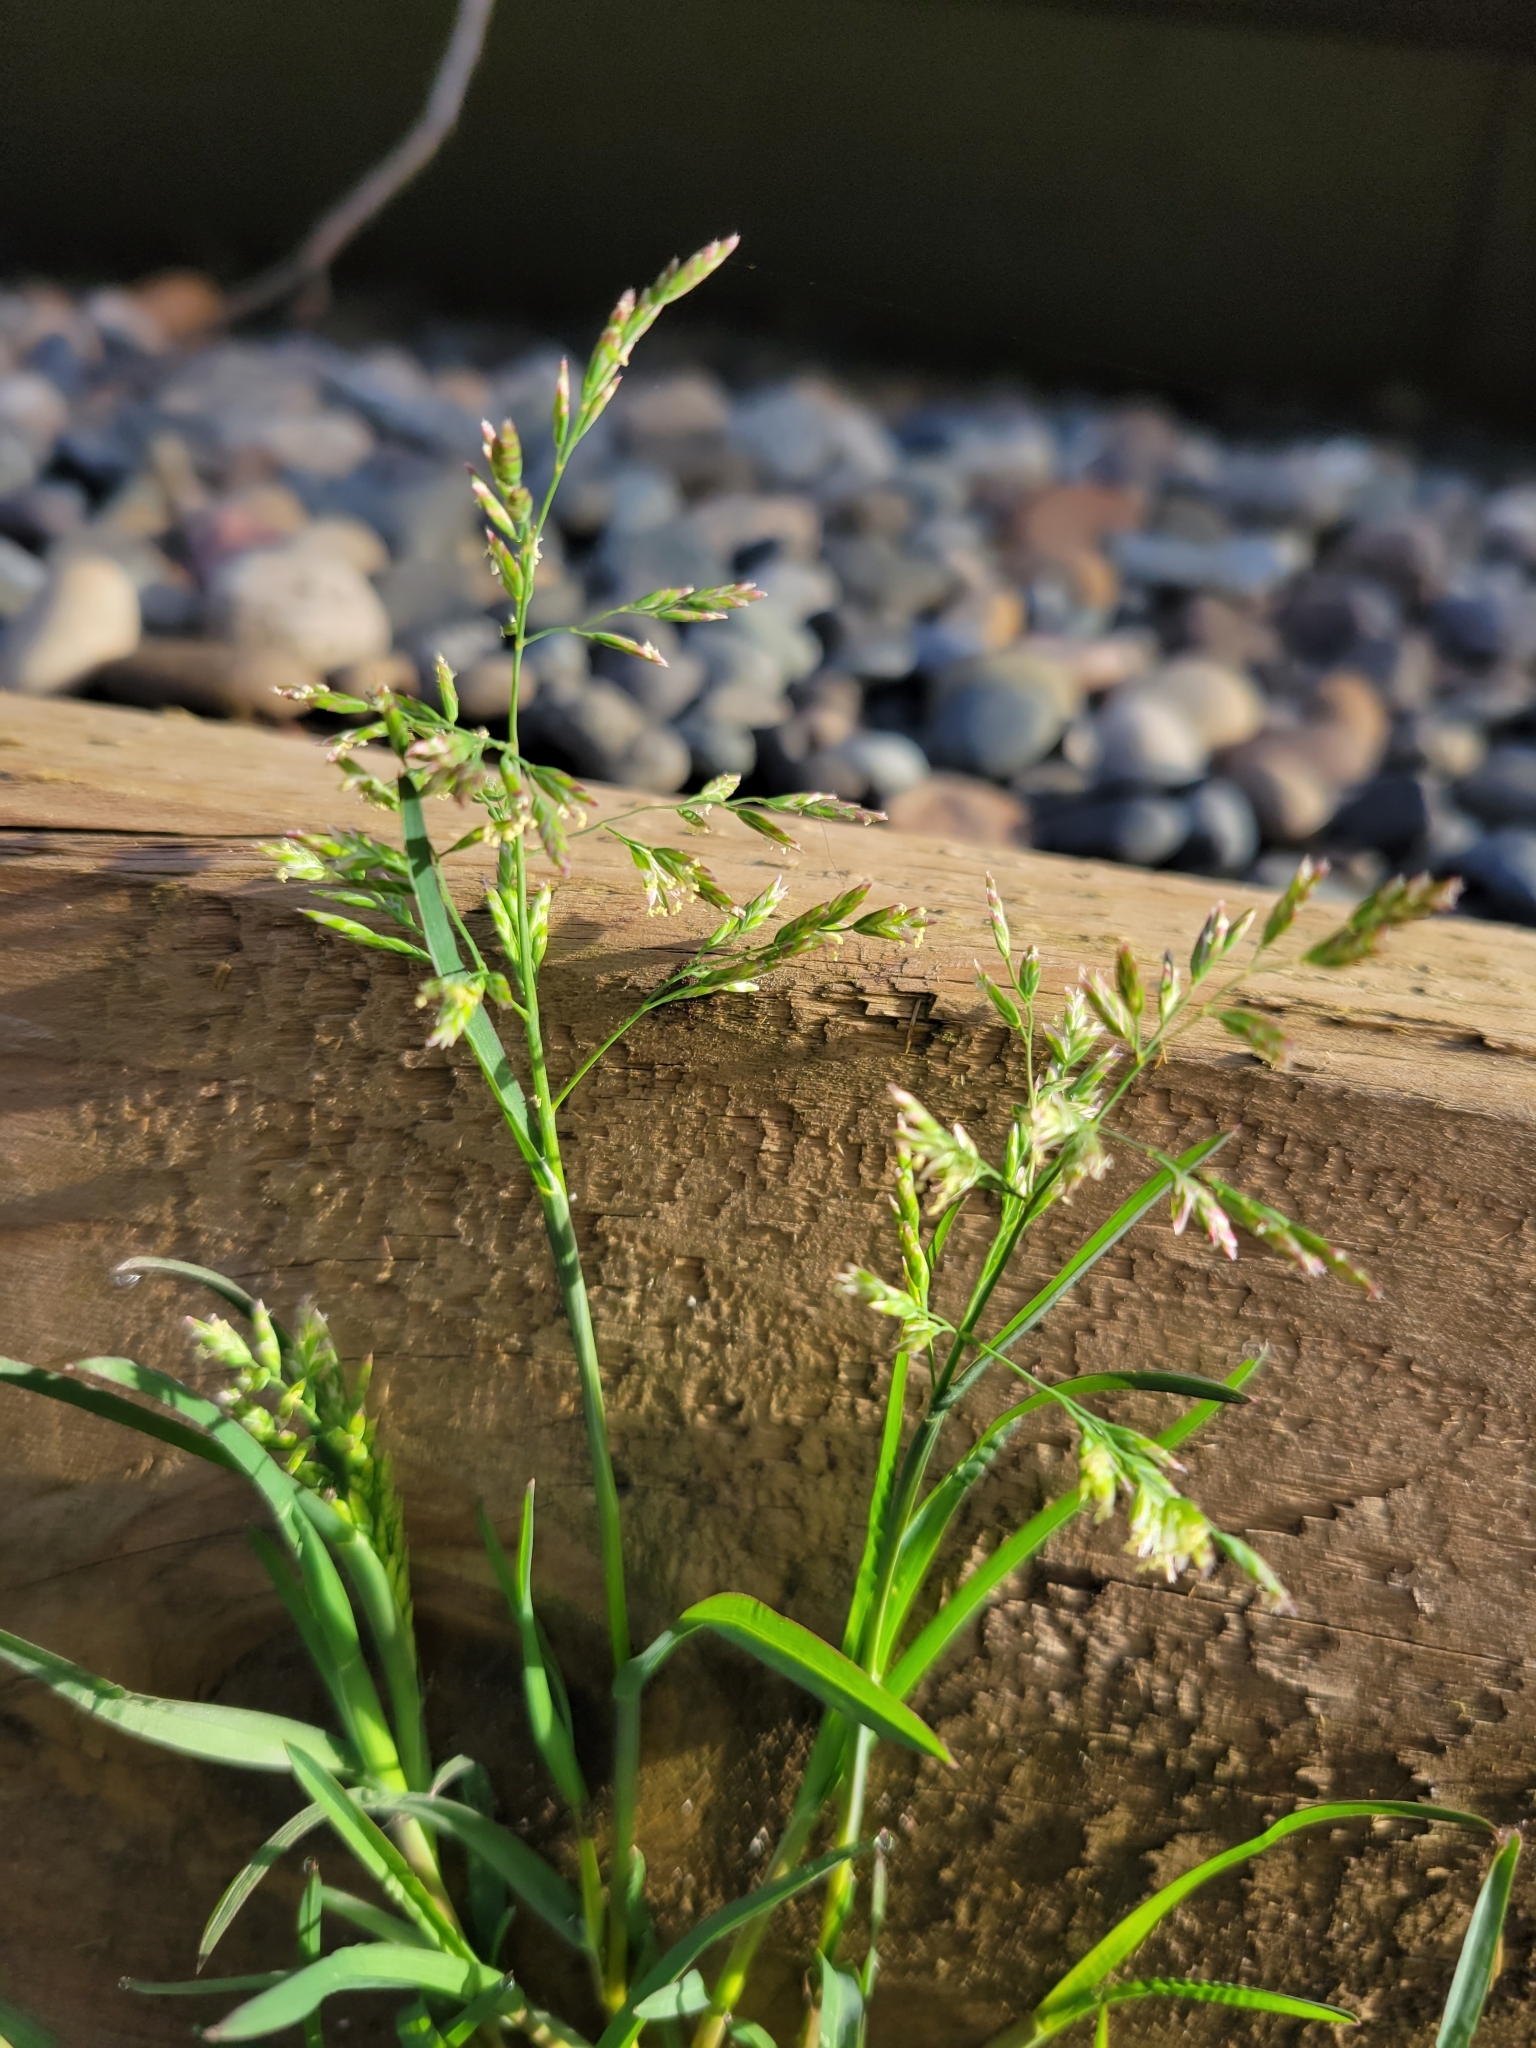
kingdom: Plantae
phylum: Tracheophyta
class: Liliopsida
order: Poales
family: Poaceae
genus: Poa
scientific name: Poa annua
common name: Annual bluegrass
